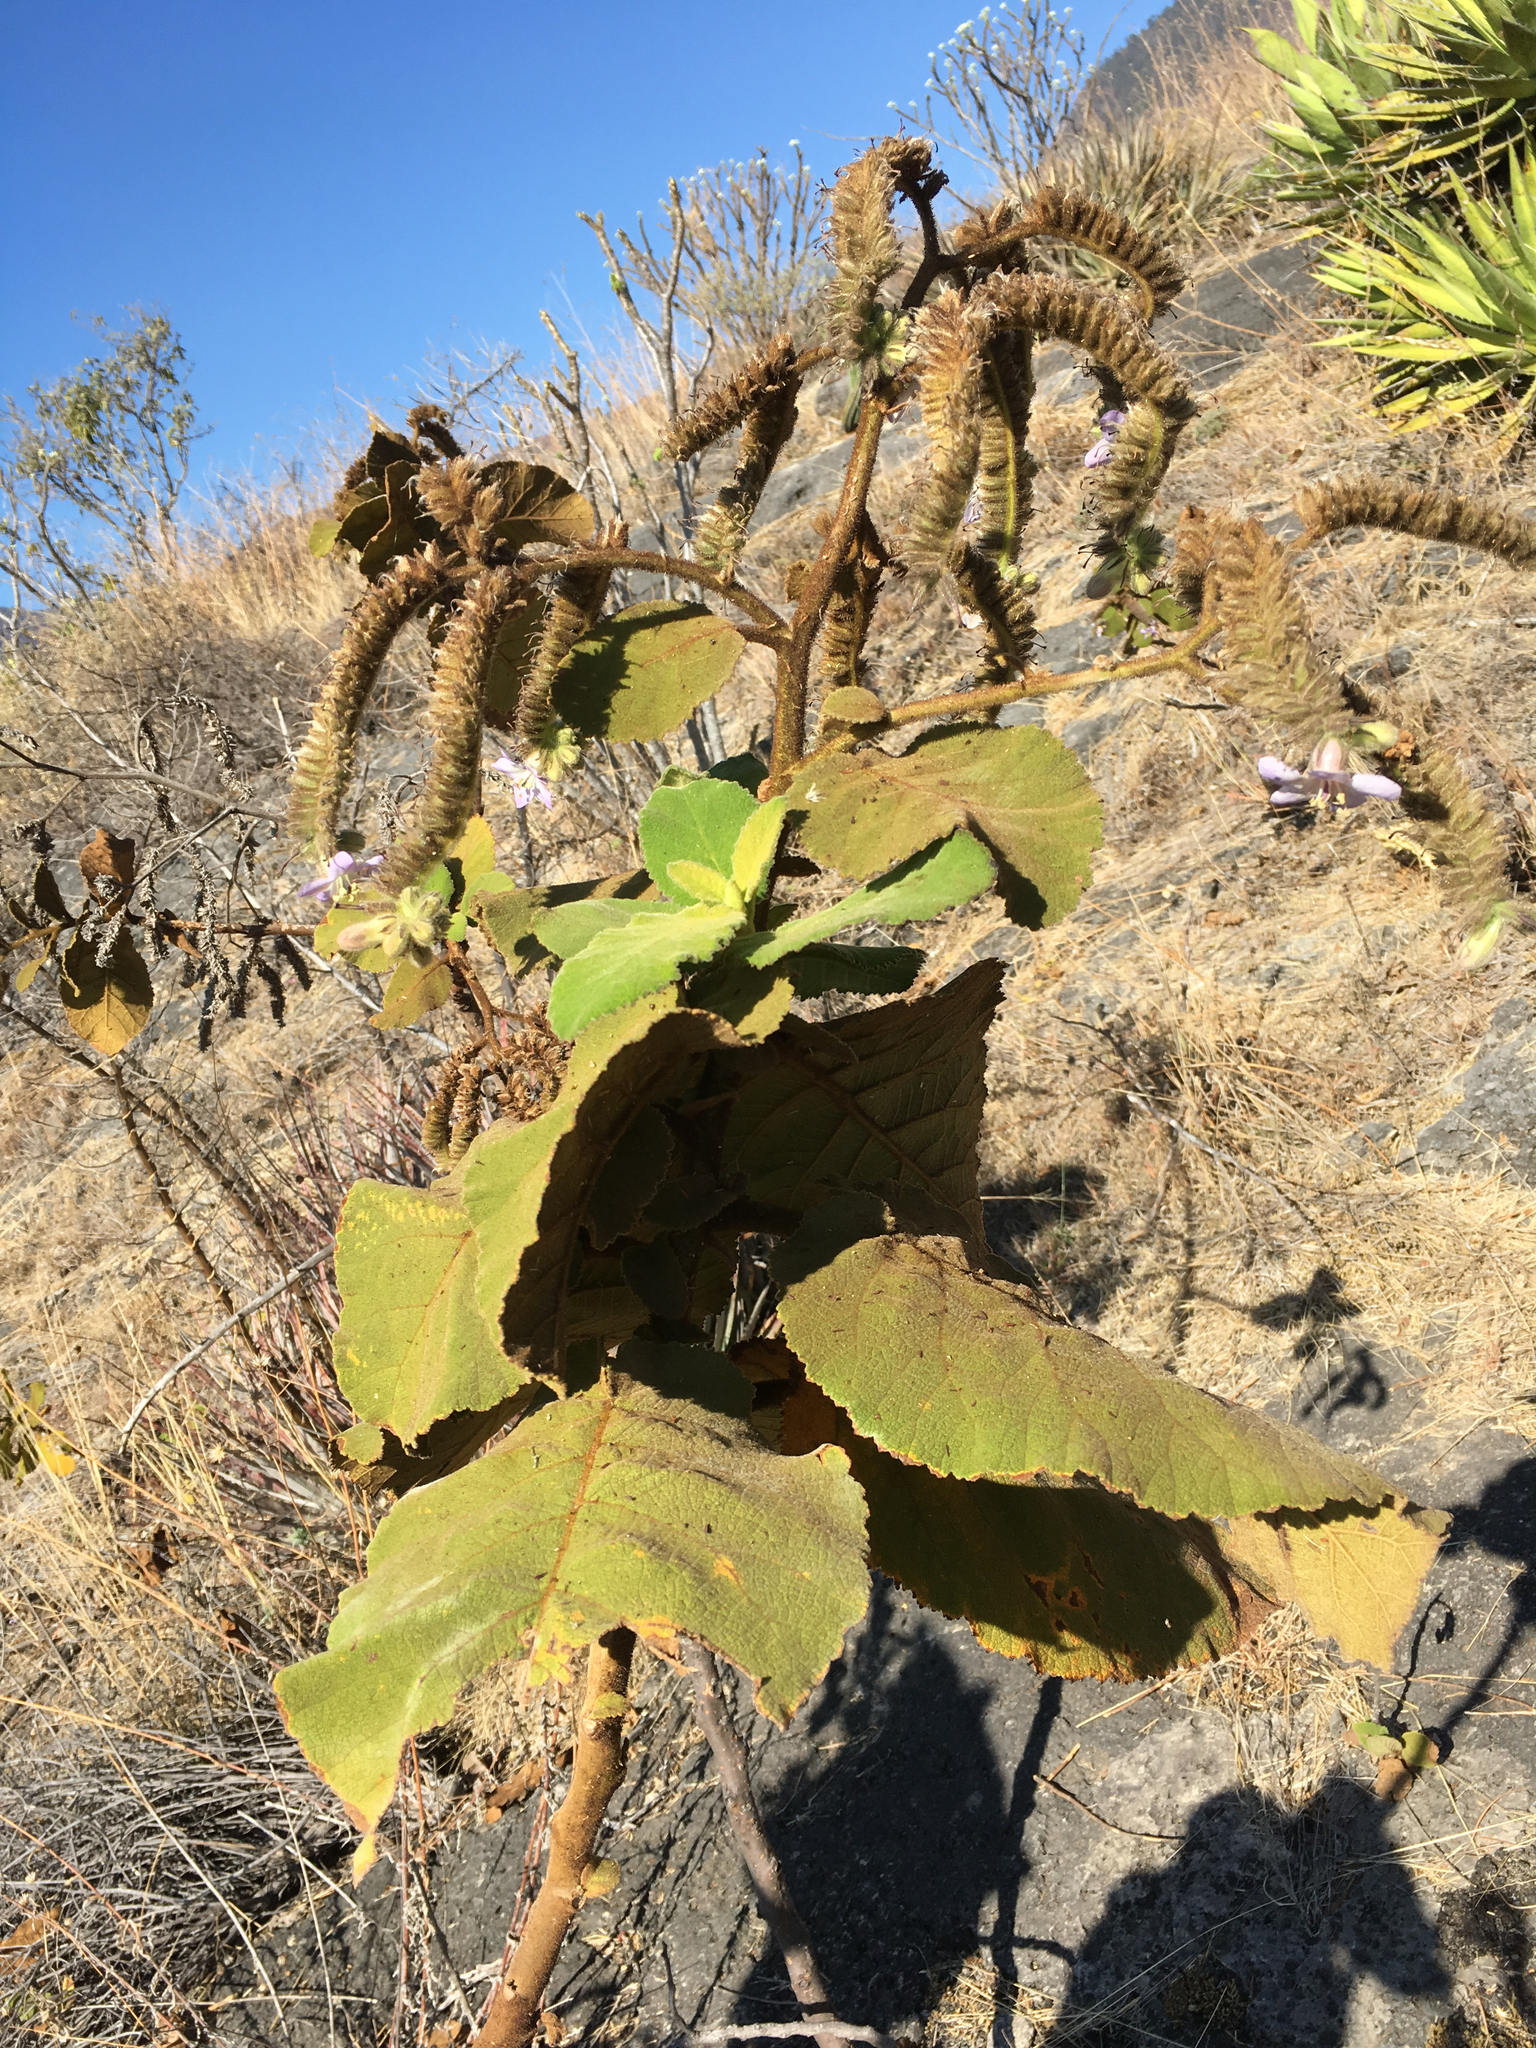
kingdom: Plantae
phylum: Tracheophyta
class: Magnoliopsida
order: Boraginales
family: Namaceae
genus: Wigandia
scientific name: Wigandia urens
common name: Caracus wigandia
